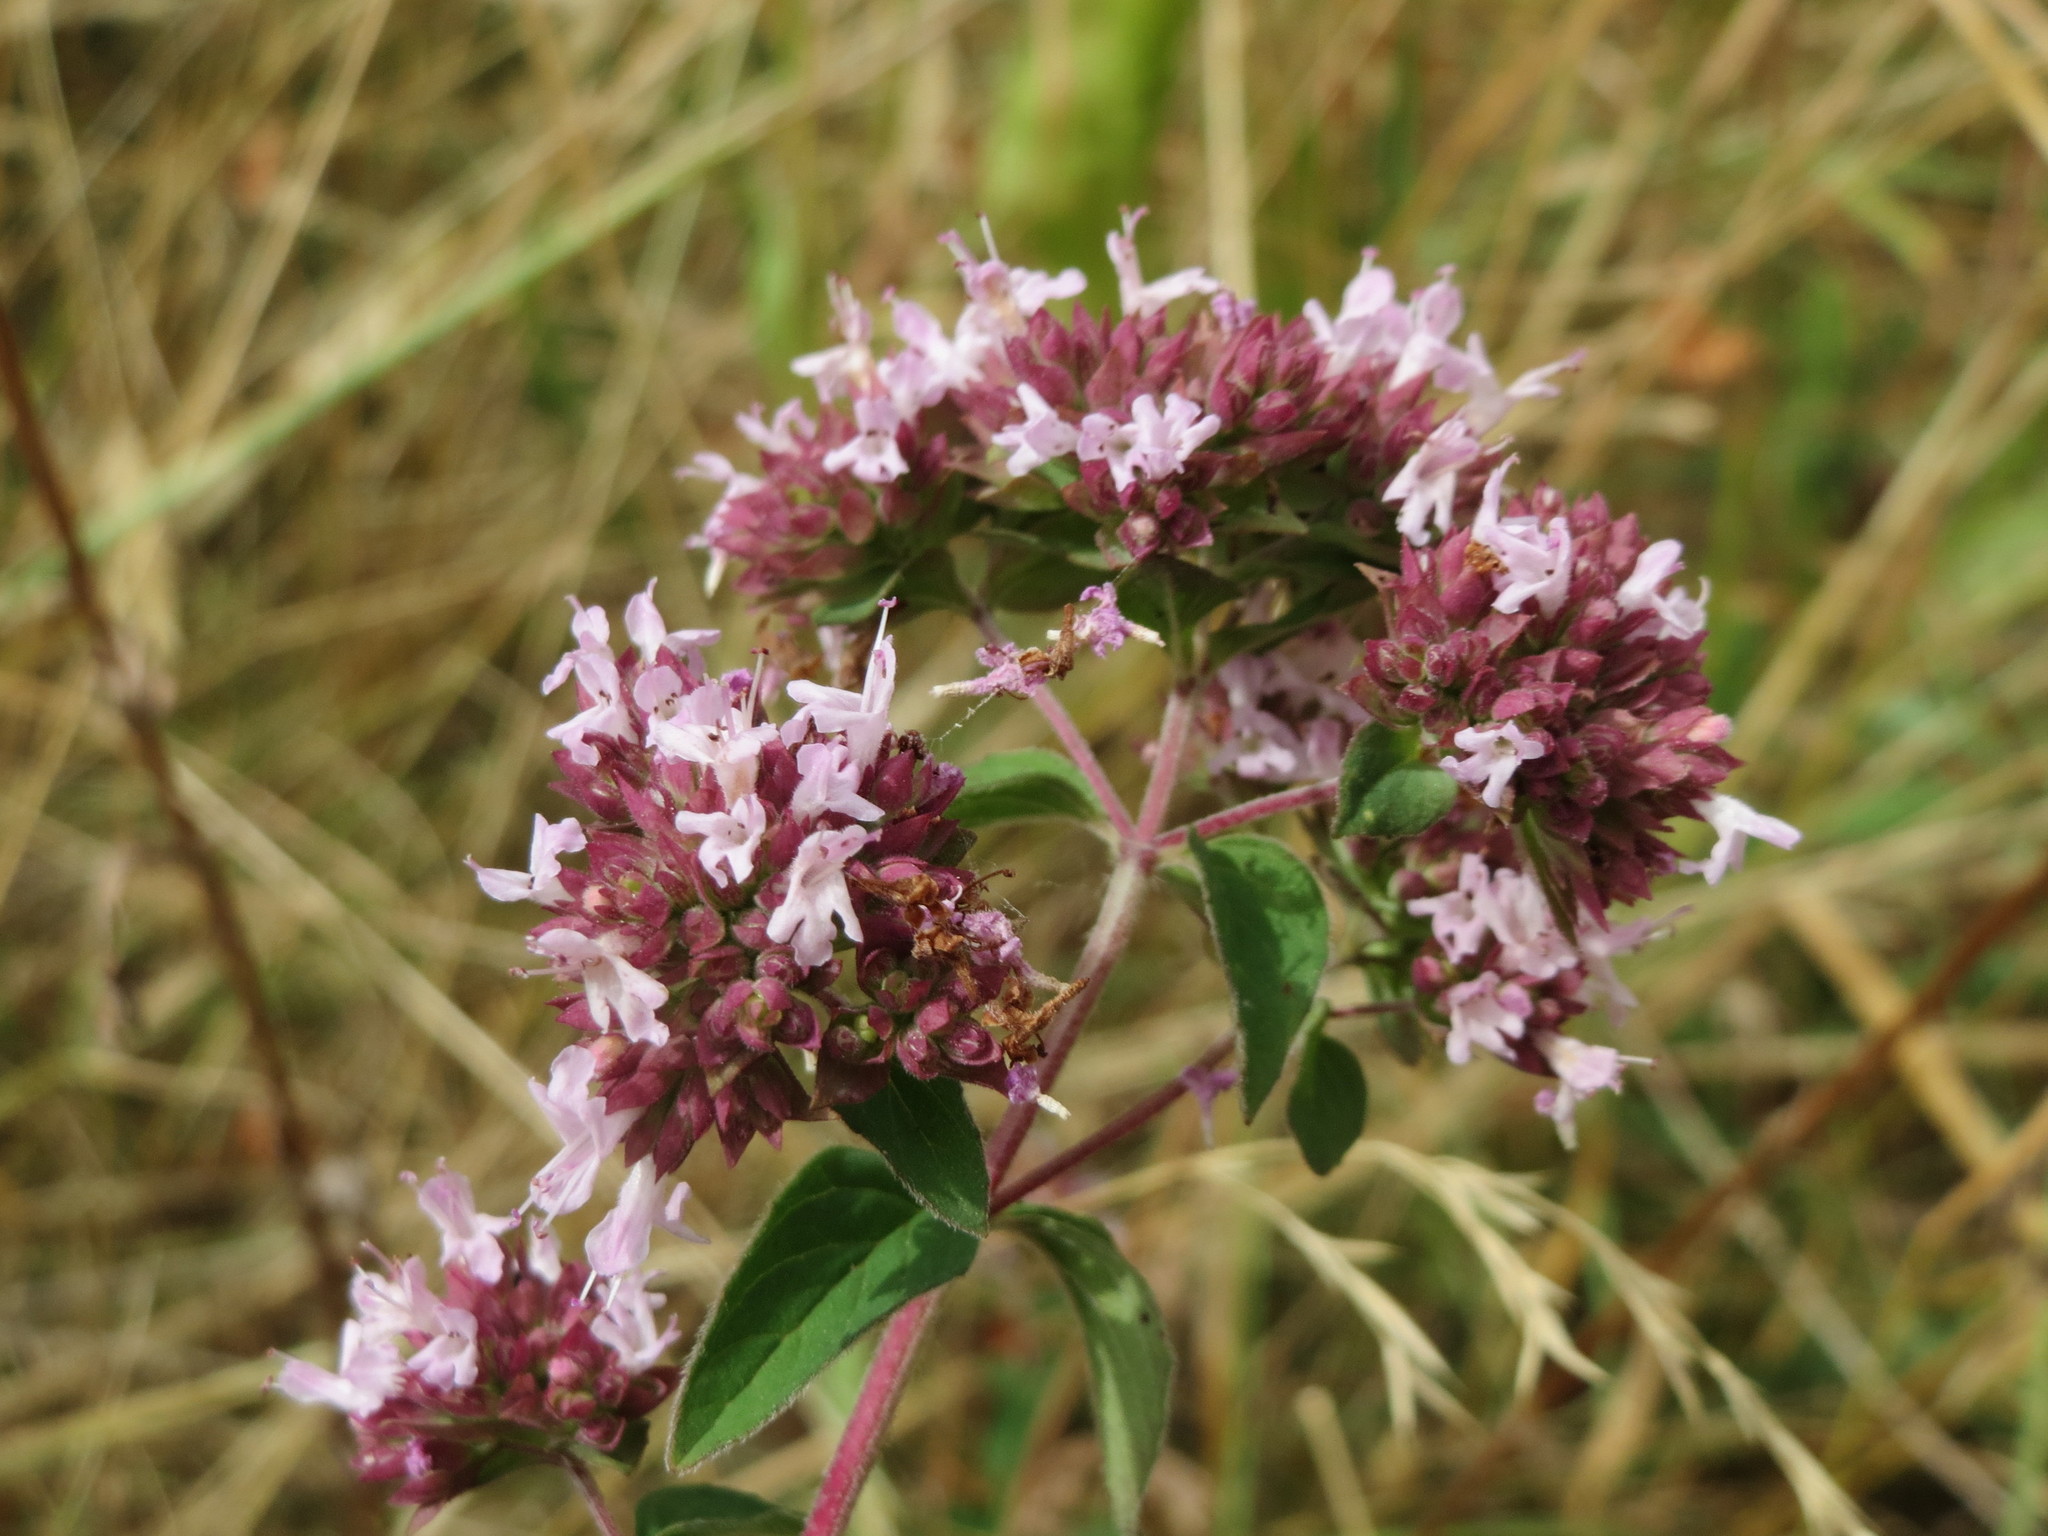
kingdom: Plantae
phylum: Tracheophyta
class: Magnoliopsida
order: Lamiales
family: Lamiaceae
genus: Origanum
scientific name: Origanum vulgare
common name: Wild marjoram
